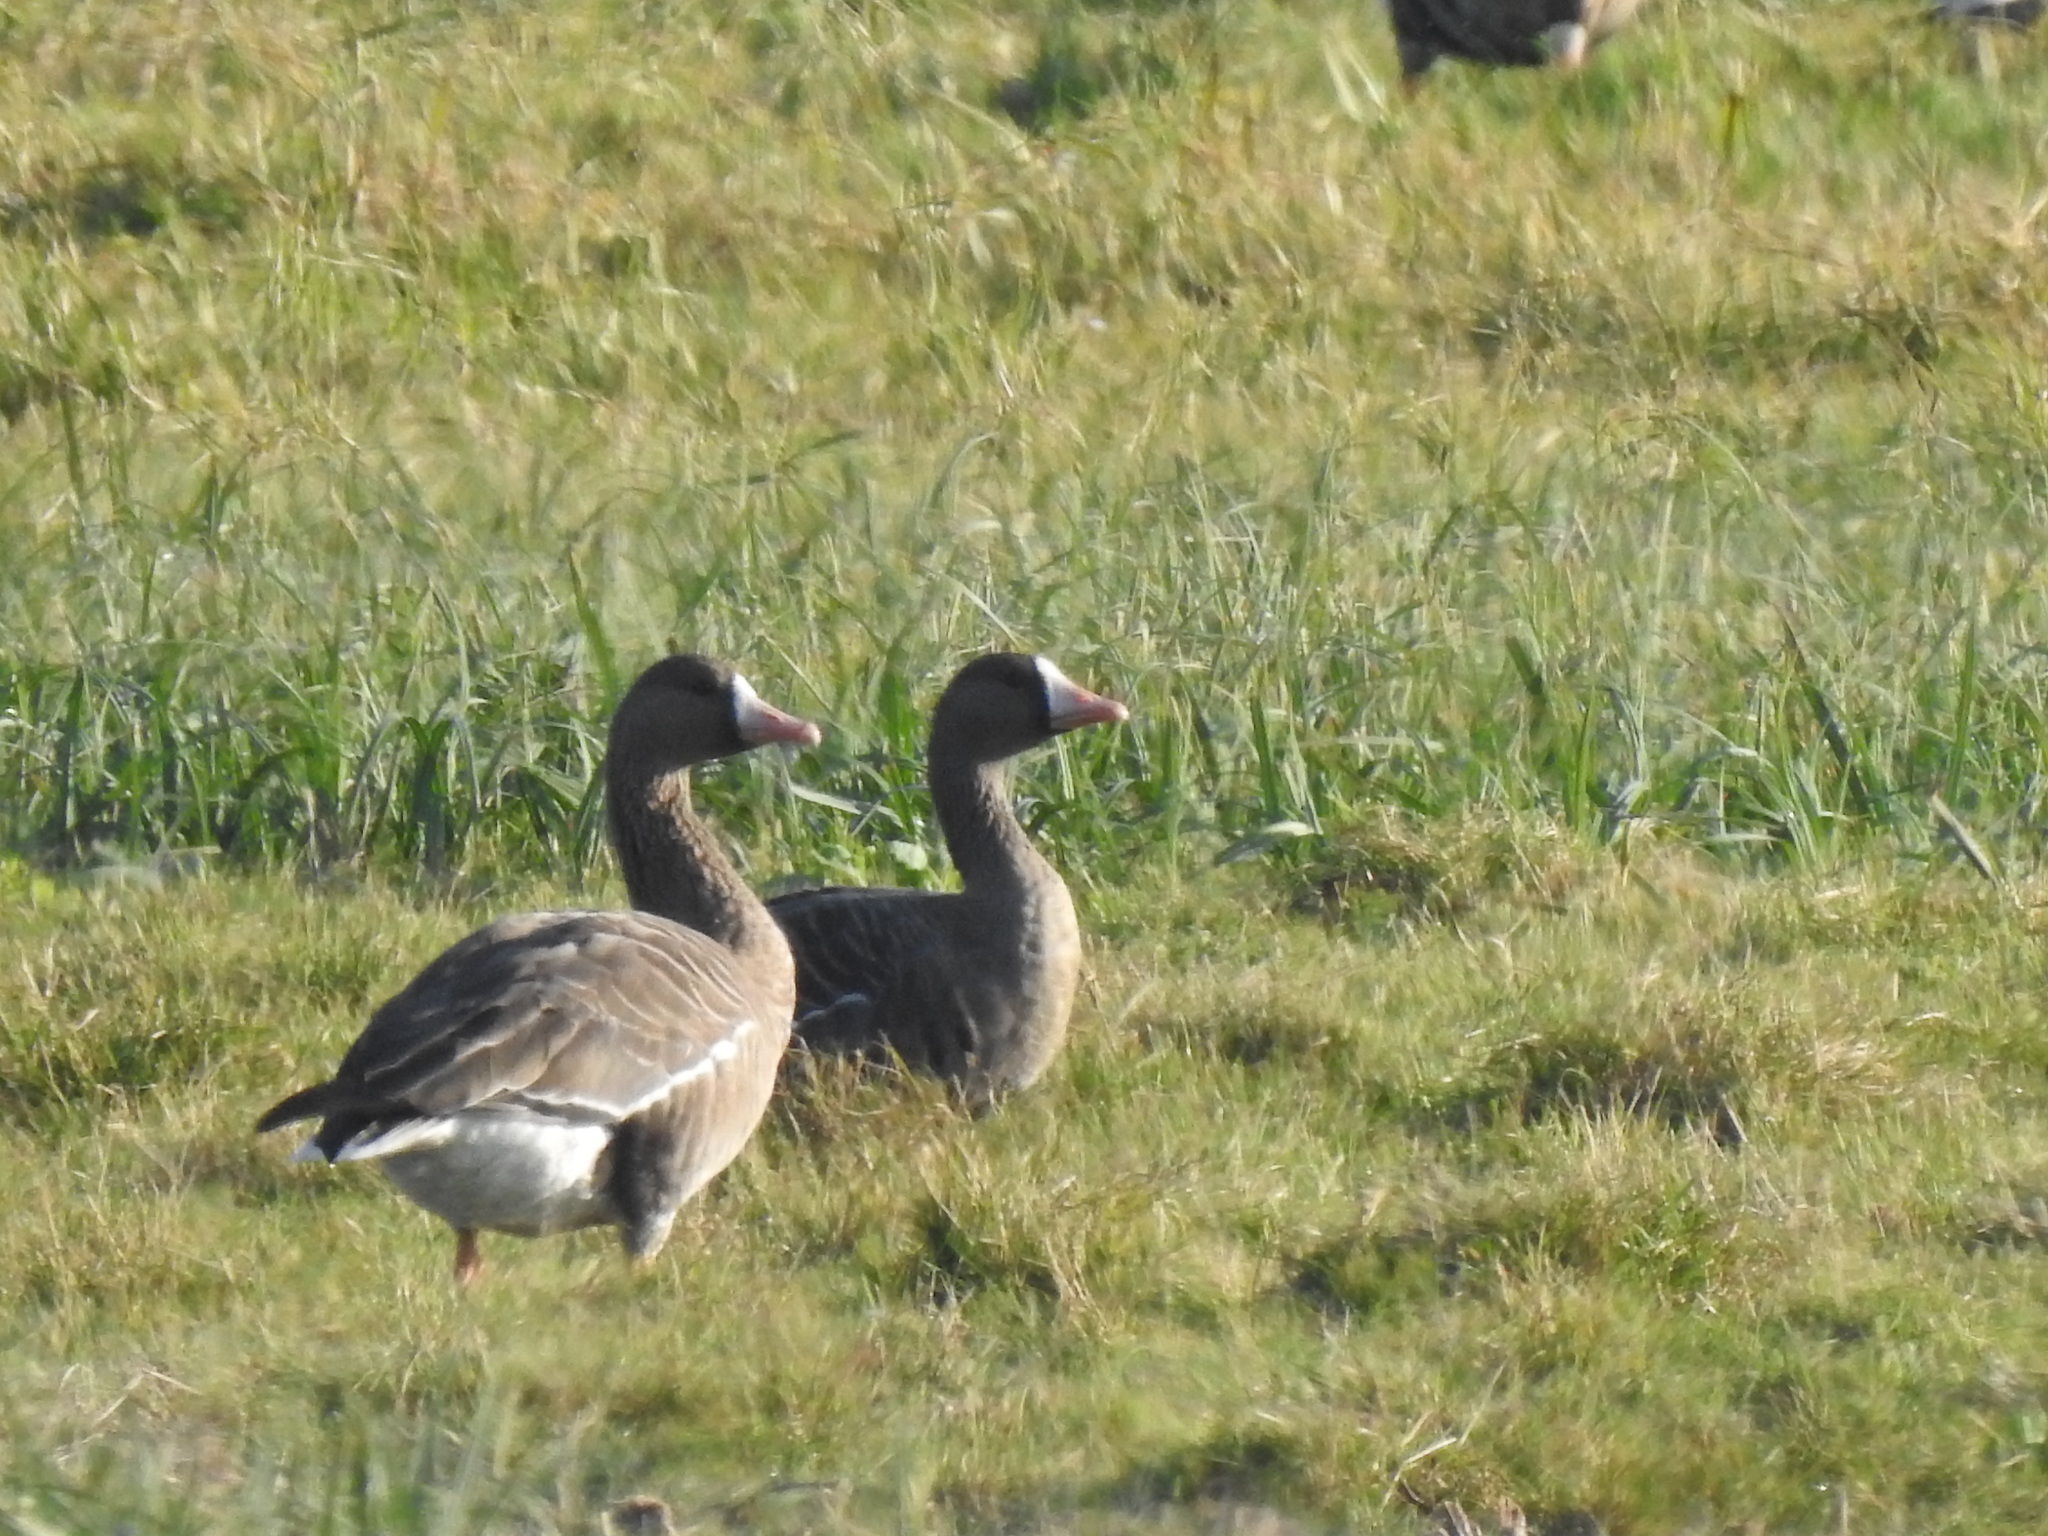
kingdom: Animalia
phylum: Chordata
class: Aves
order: Anseriformes
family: Anatidae
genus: Anser
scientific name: Anser albifrons
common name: Greater white-fronted goose
